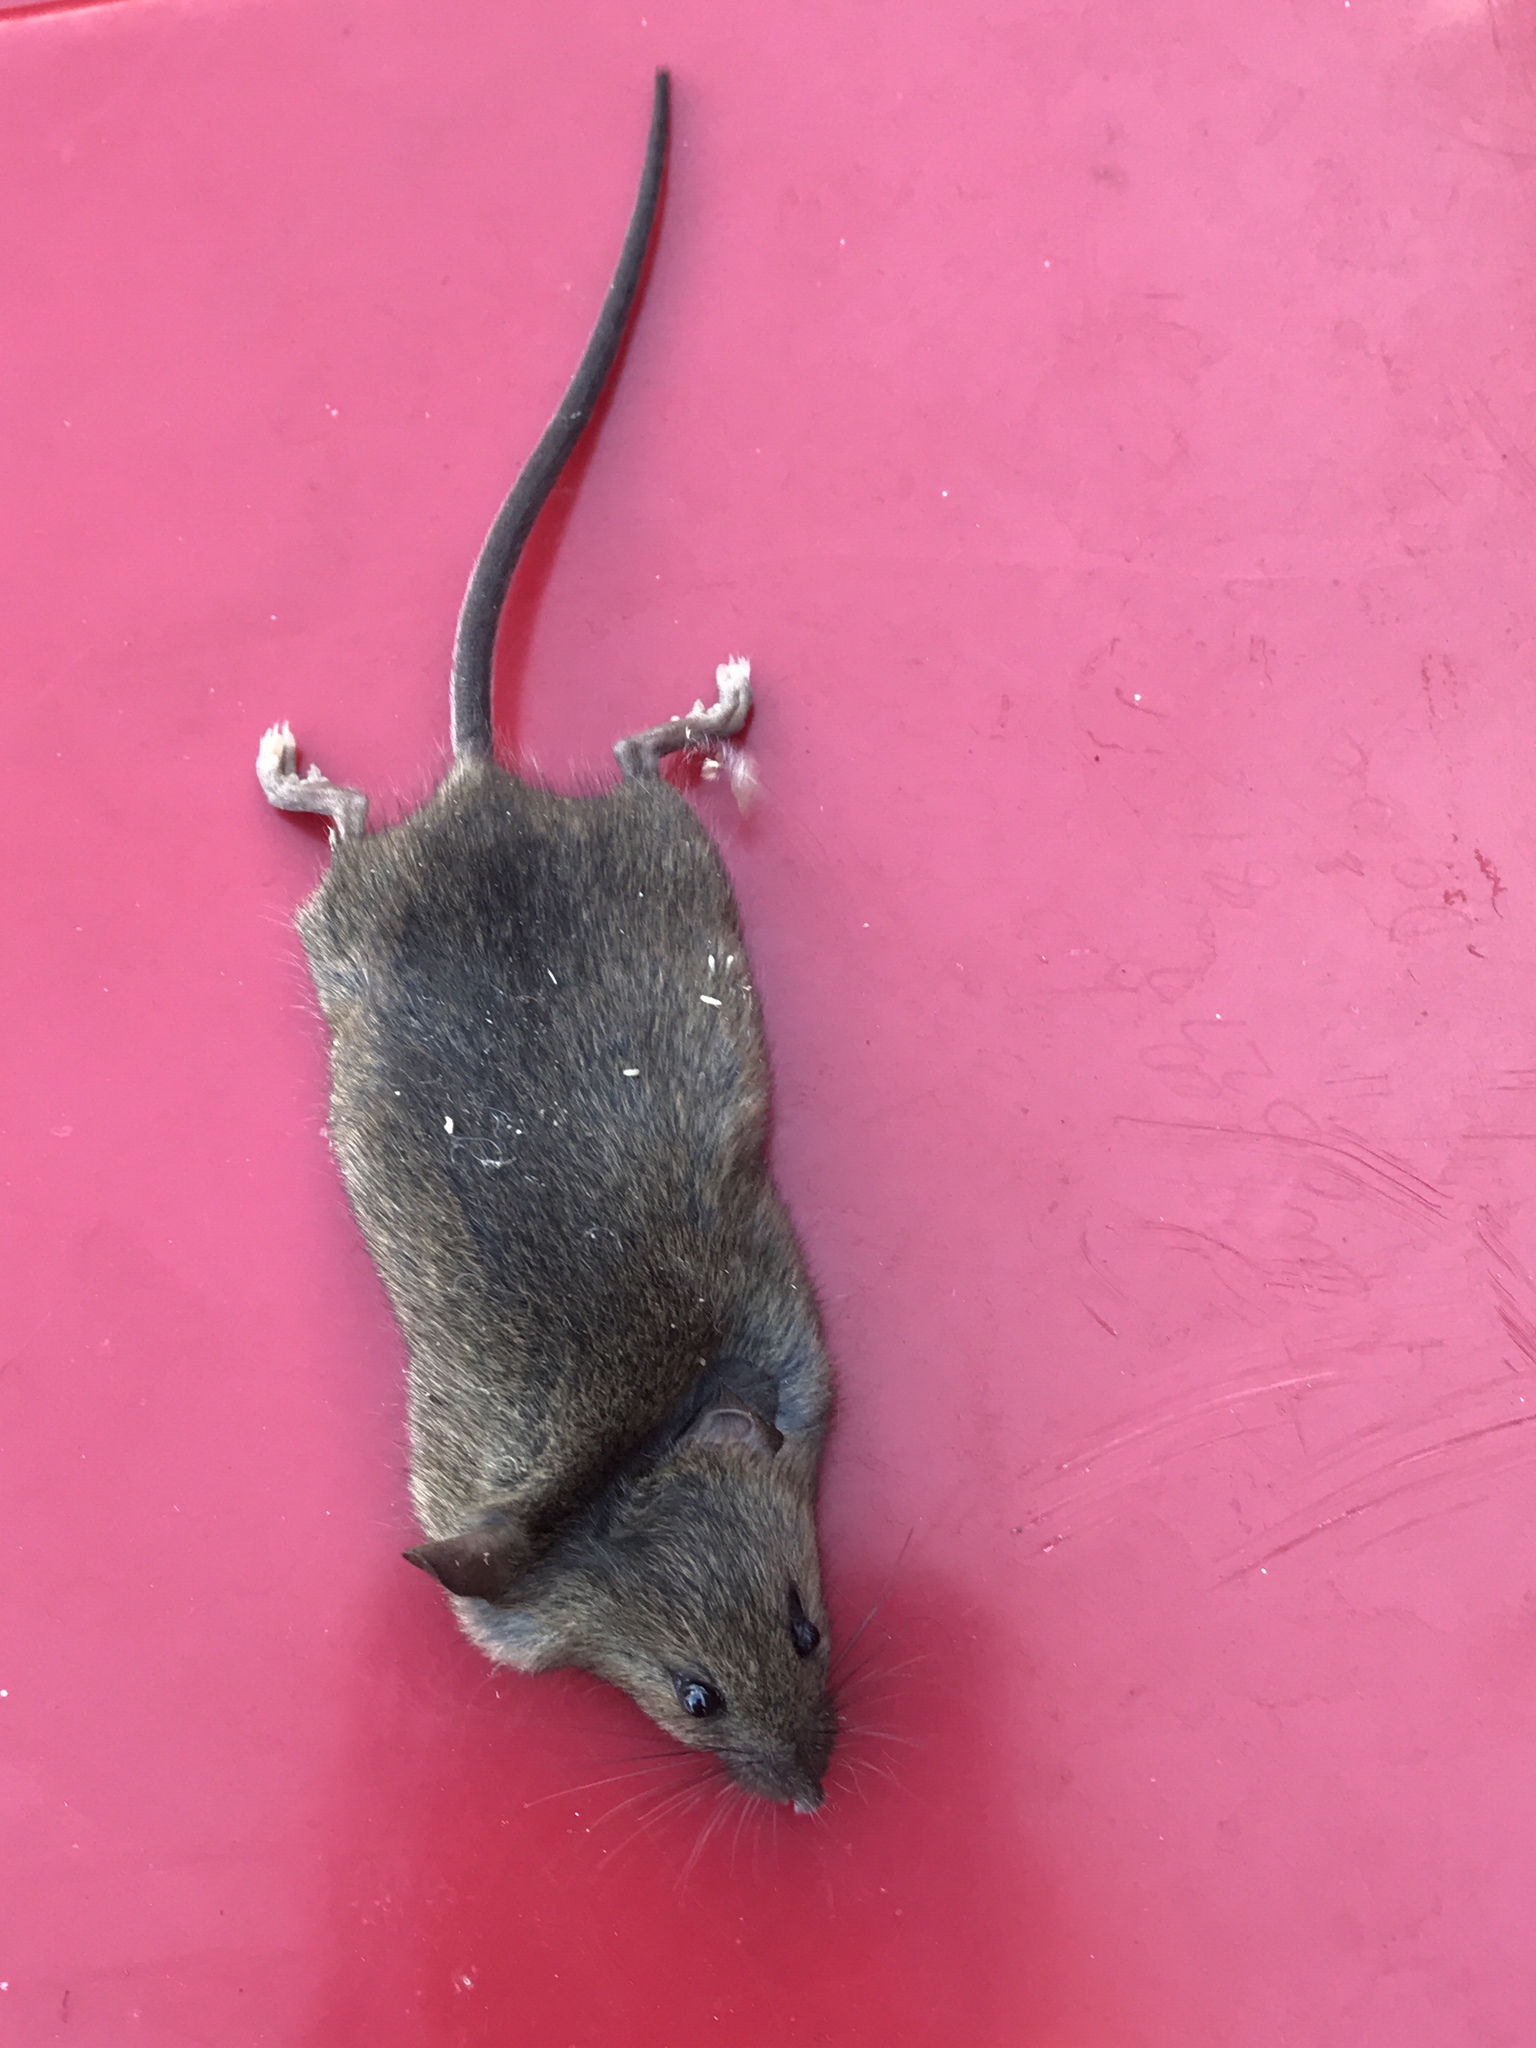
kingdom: Animalia
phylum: Chordata
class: Mammalia
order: Rodentia
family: Muridae
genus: Mus
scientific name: Mus musculus
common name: House mouse
